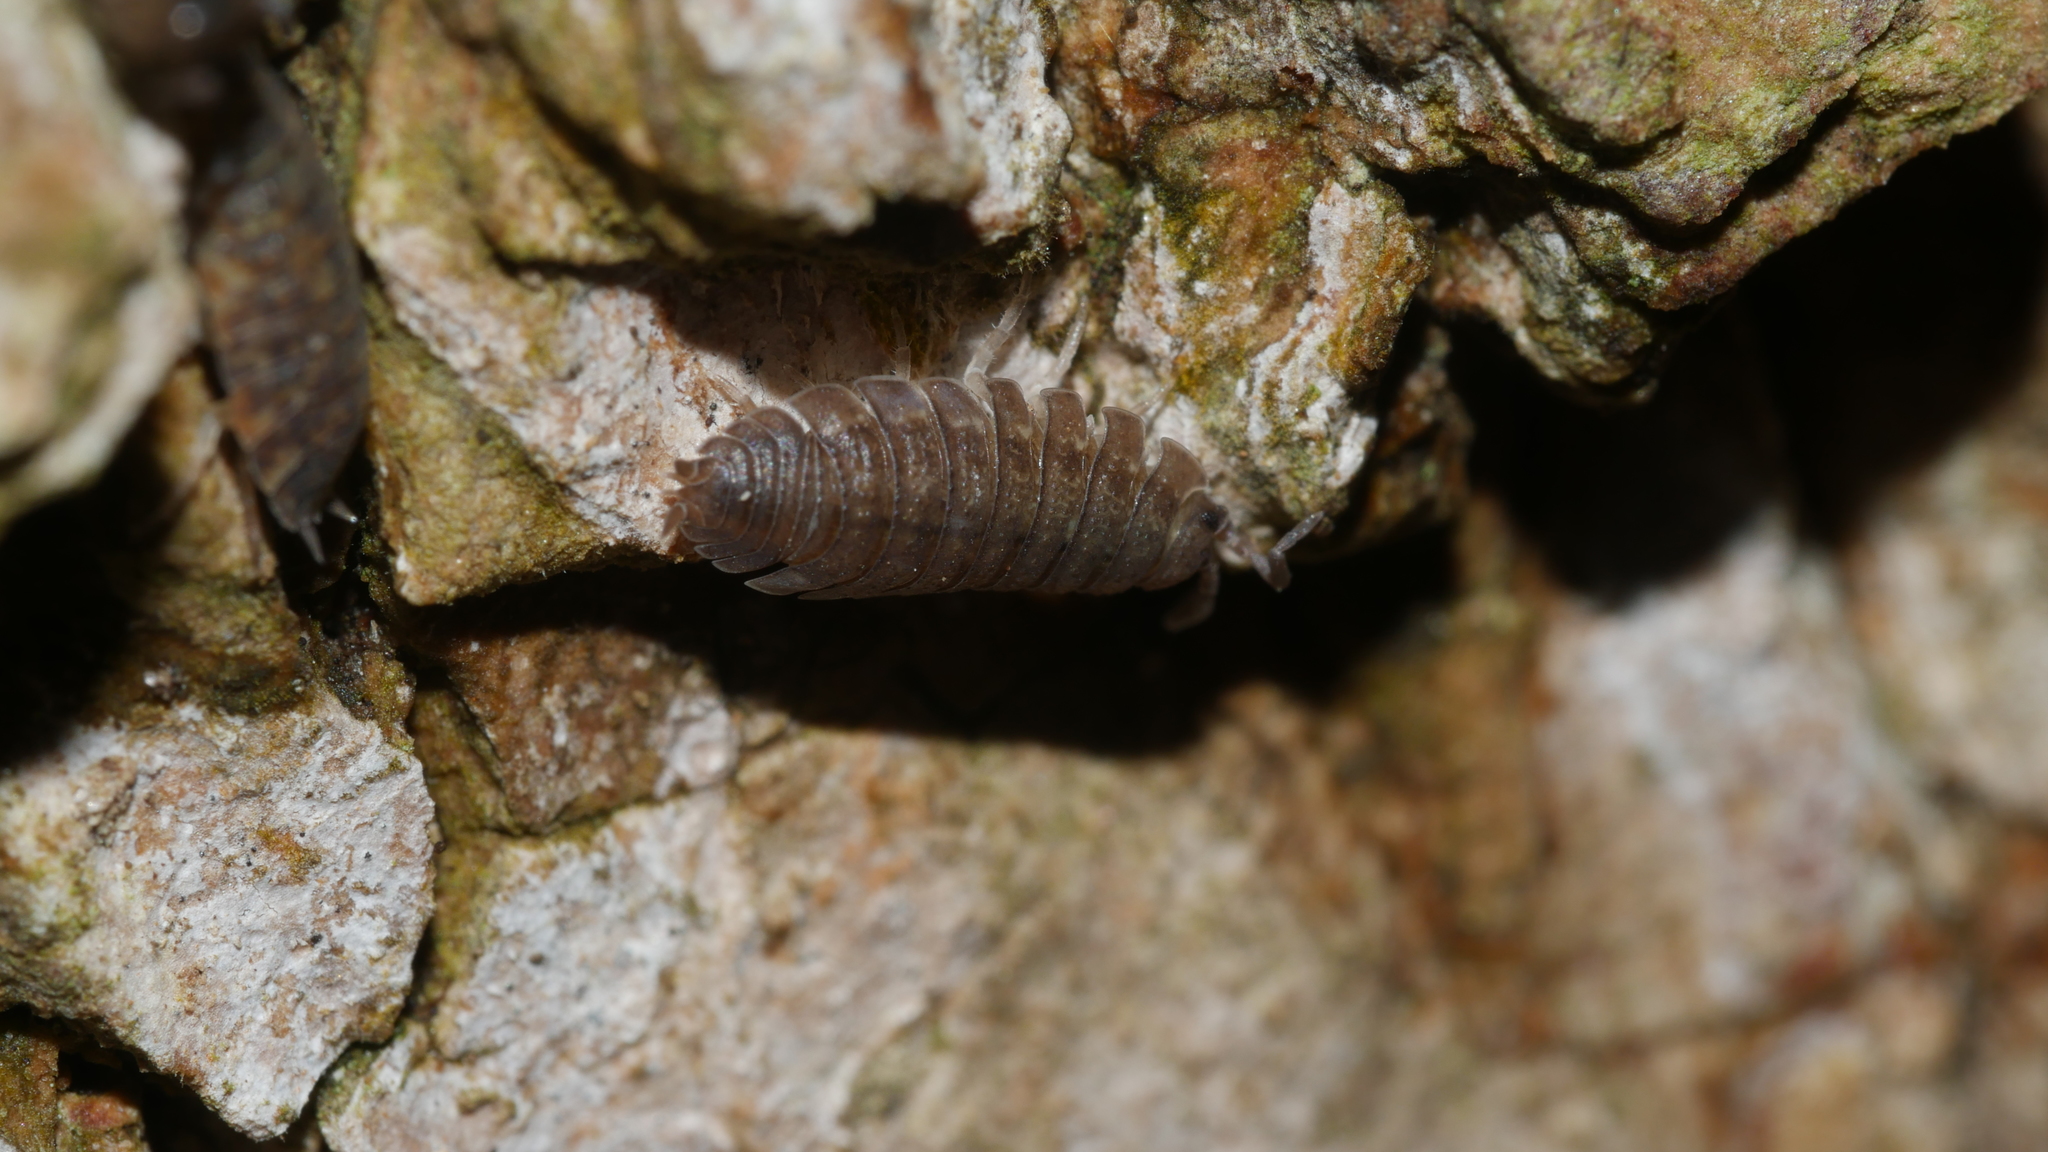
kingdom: Animalia
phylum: Arthropoda
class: Malacostraca
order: Isopoda
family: Porcellionidae
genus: Porcellio
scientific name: Porcellio scaber
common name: Common rough woodlouse
